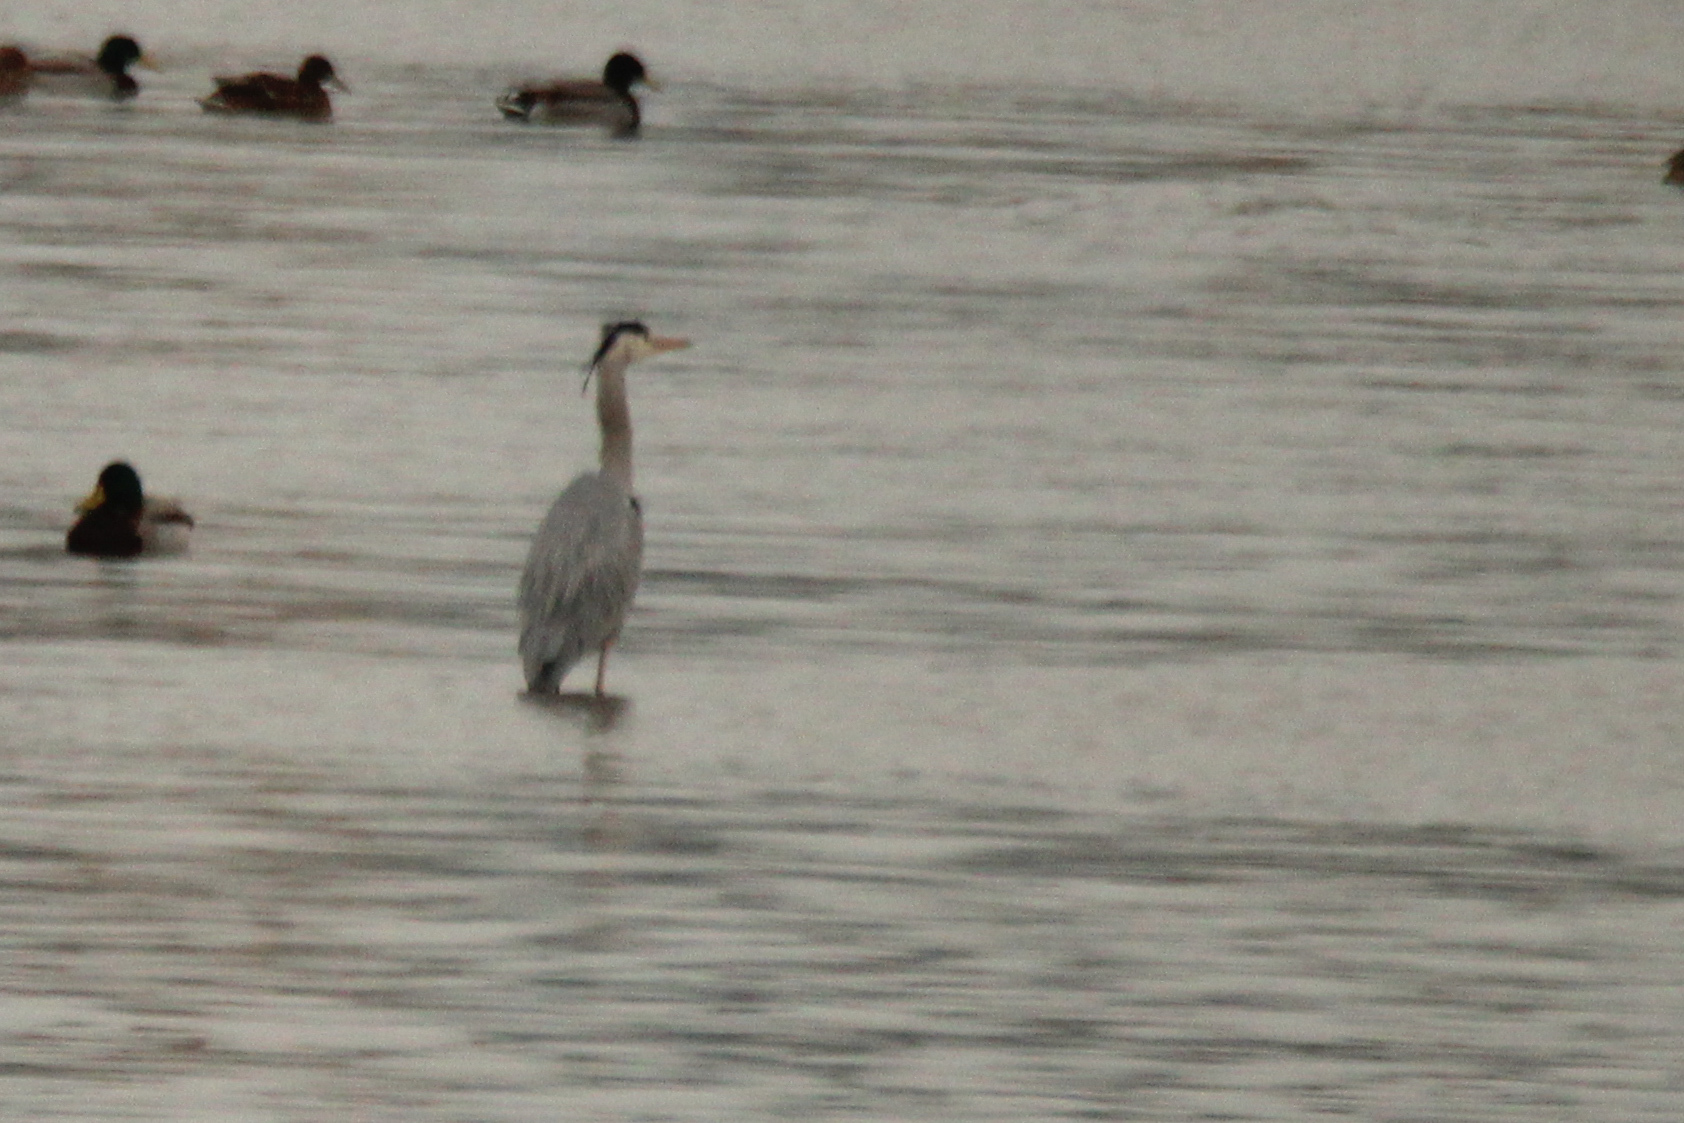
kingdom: Animalia
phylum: Chordata
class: Aves
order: Pelecaniformes
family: Ardeidae
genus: Ardea
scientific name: Ardea cinerea
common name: Grey heron
